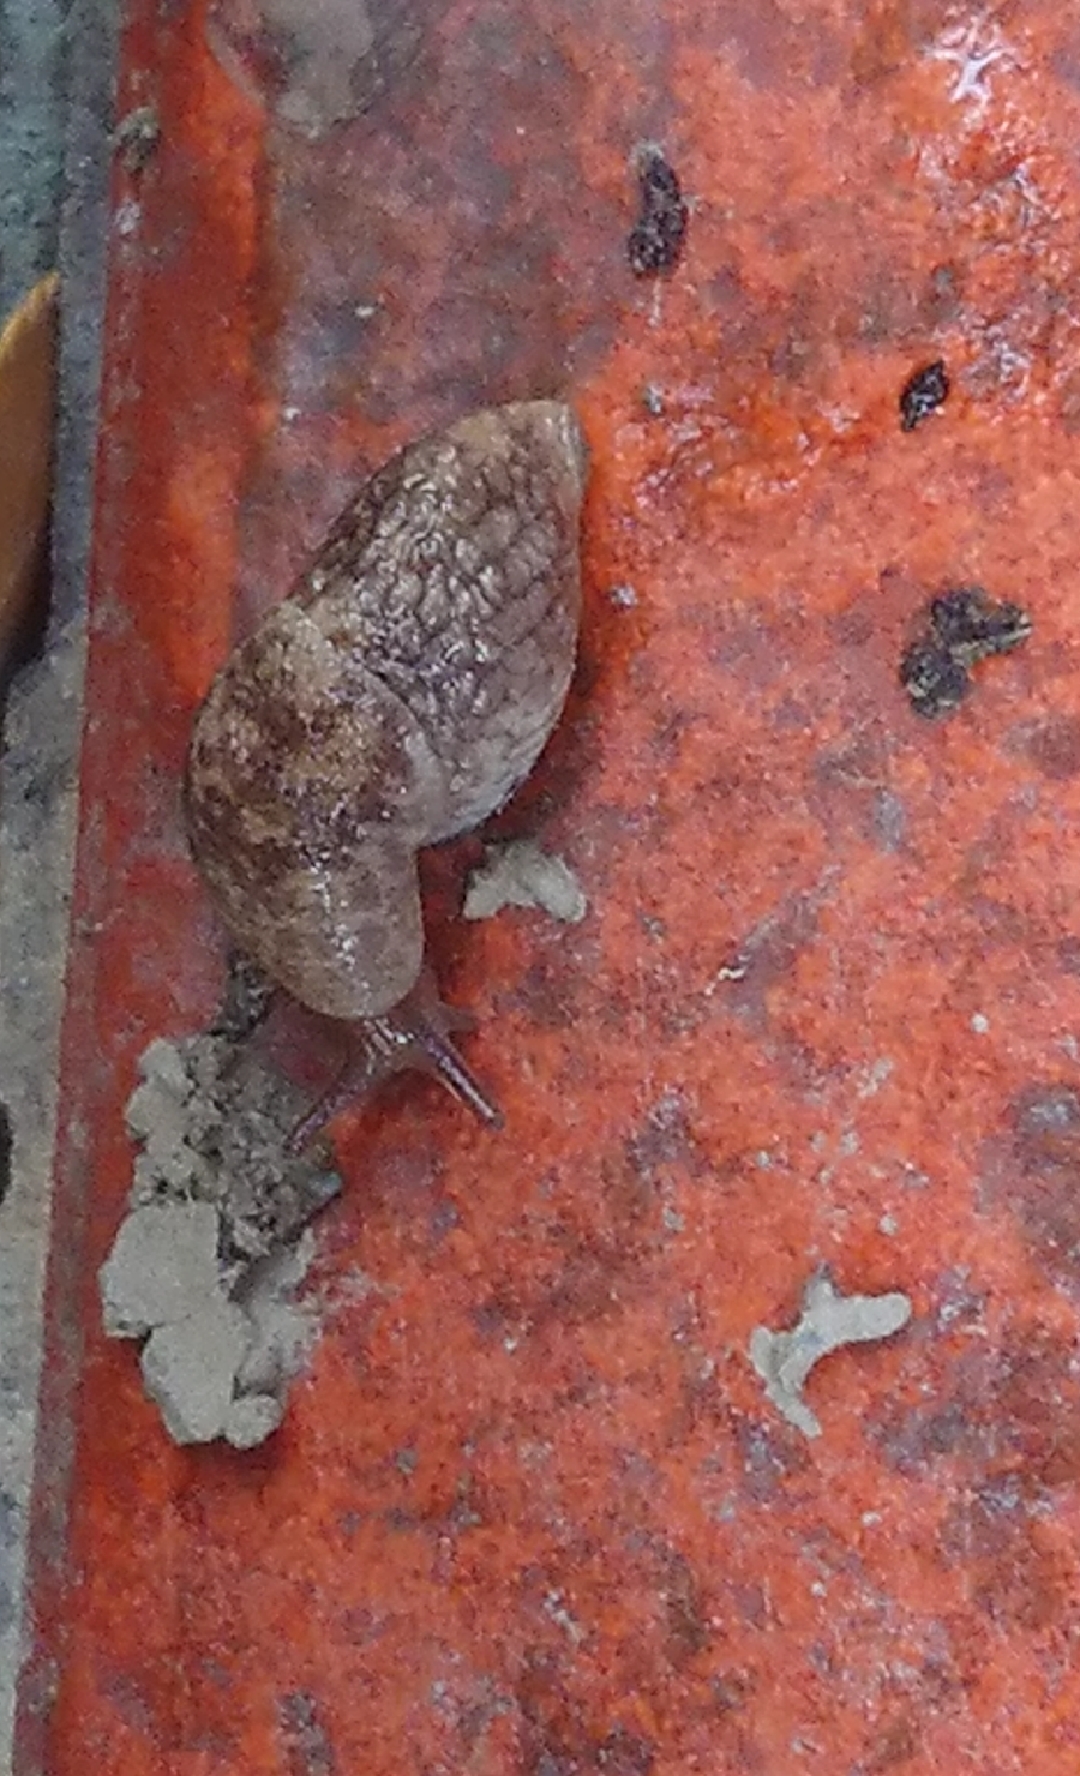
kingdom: Animalia
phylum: Mollusca
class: Gastropoda
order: Stylommatophora
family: Agriolimacidae
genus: Deroceras
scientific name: Deroceras reticulatum
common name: Gray field slug
